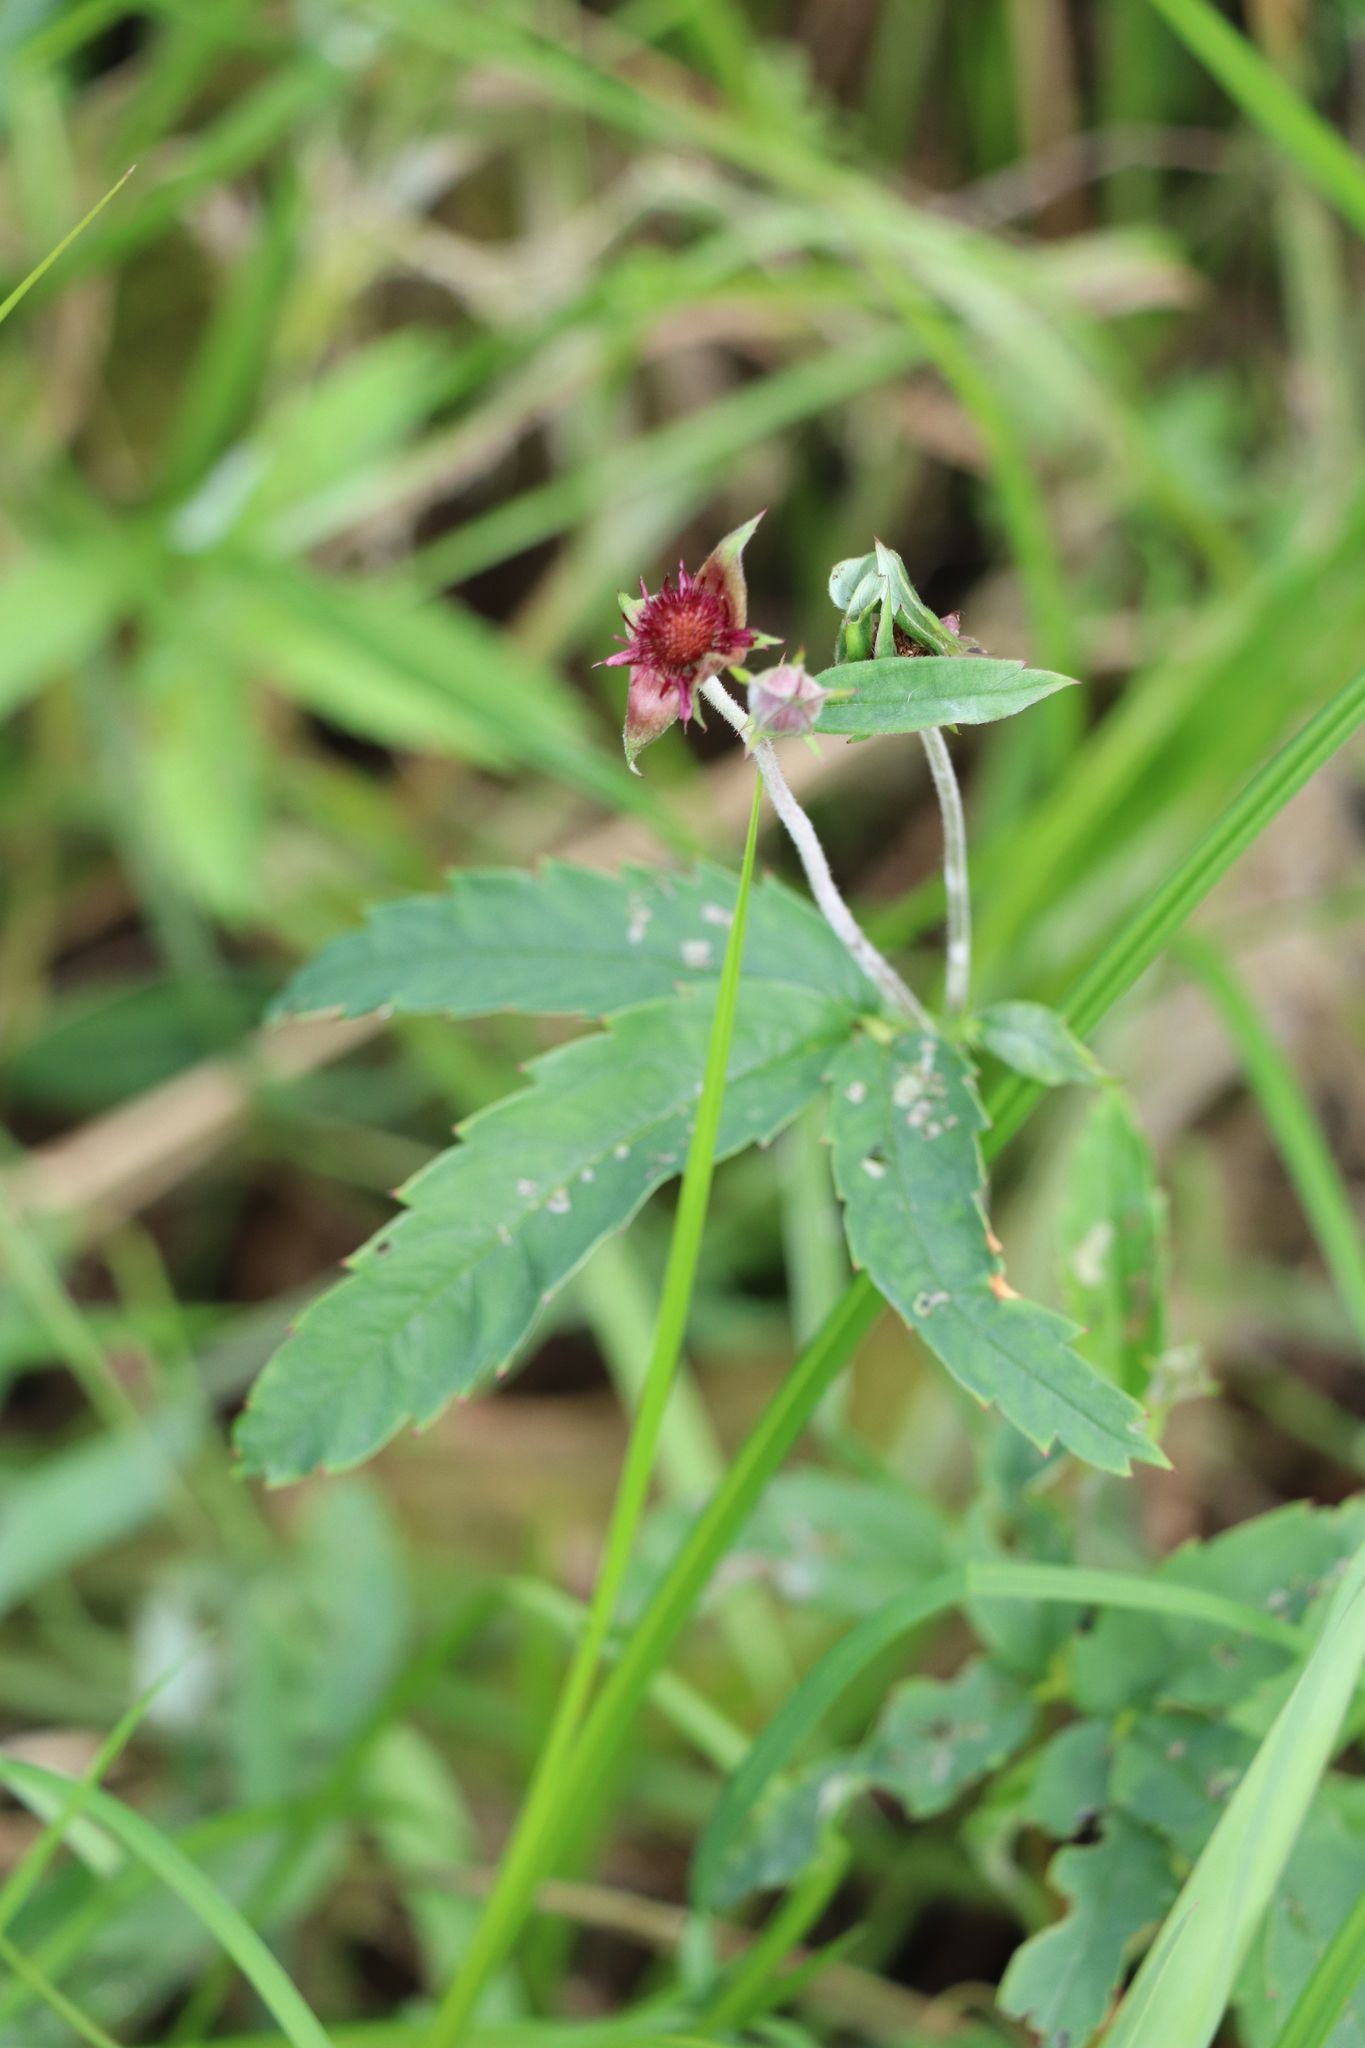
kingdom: Plantae
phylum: Tracheophyta
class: Magnoliopsida
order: Rosales
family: Rosaceae
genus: Comarum
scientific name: Comarum palustre
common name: Marsh cinquefoil
